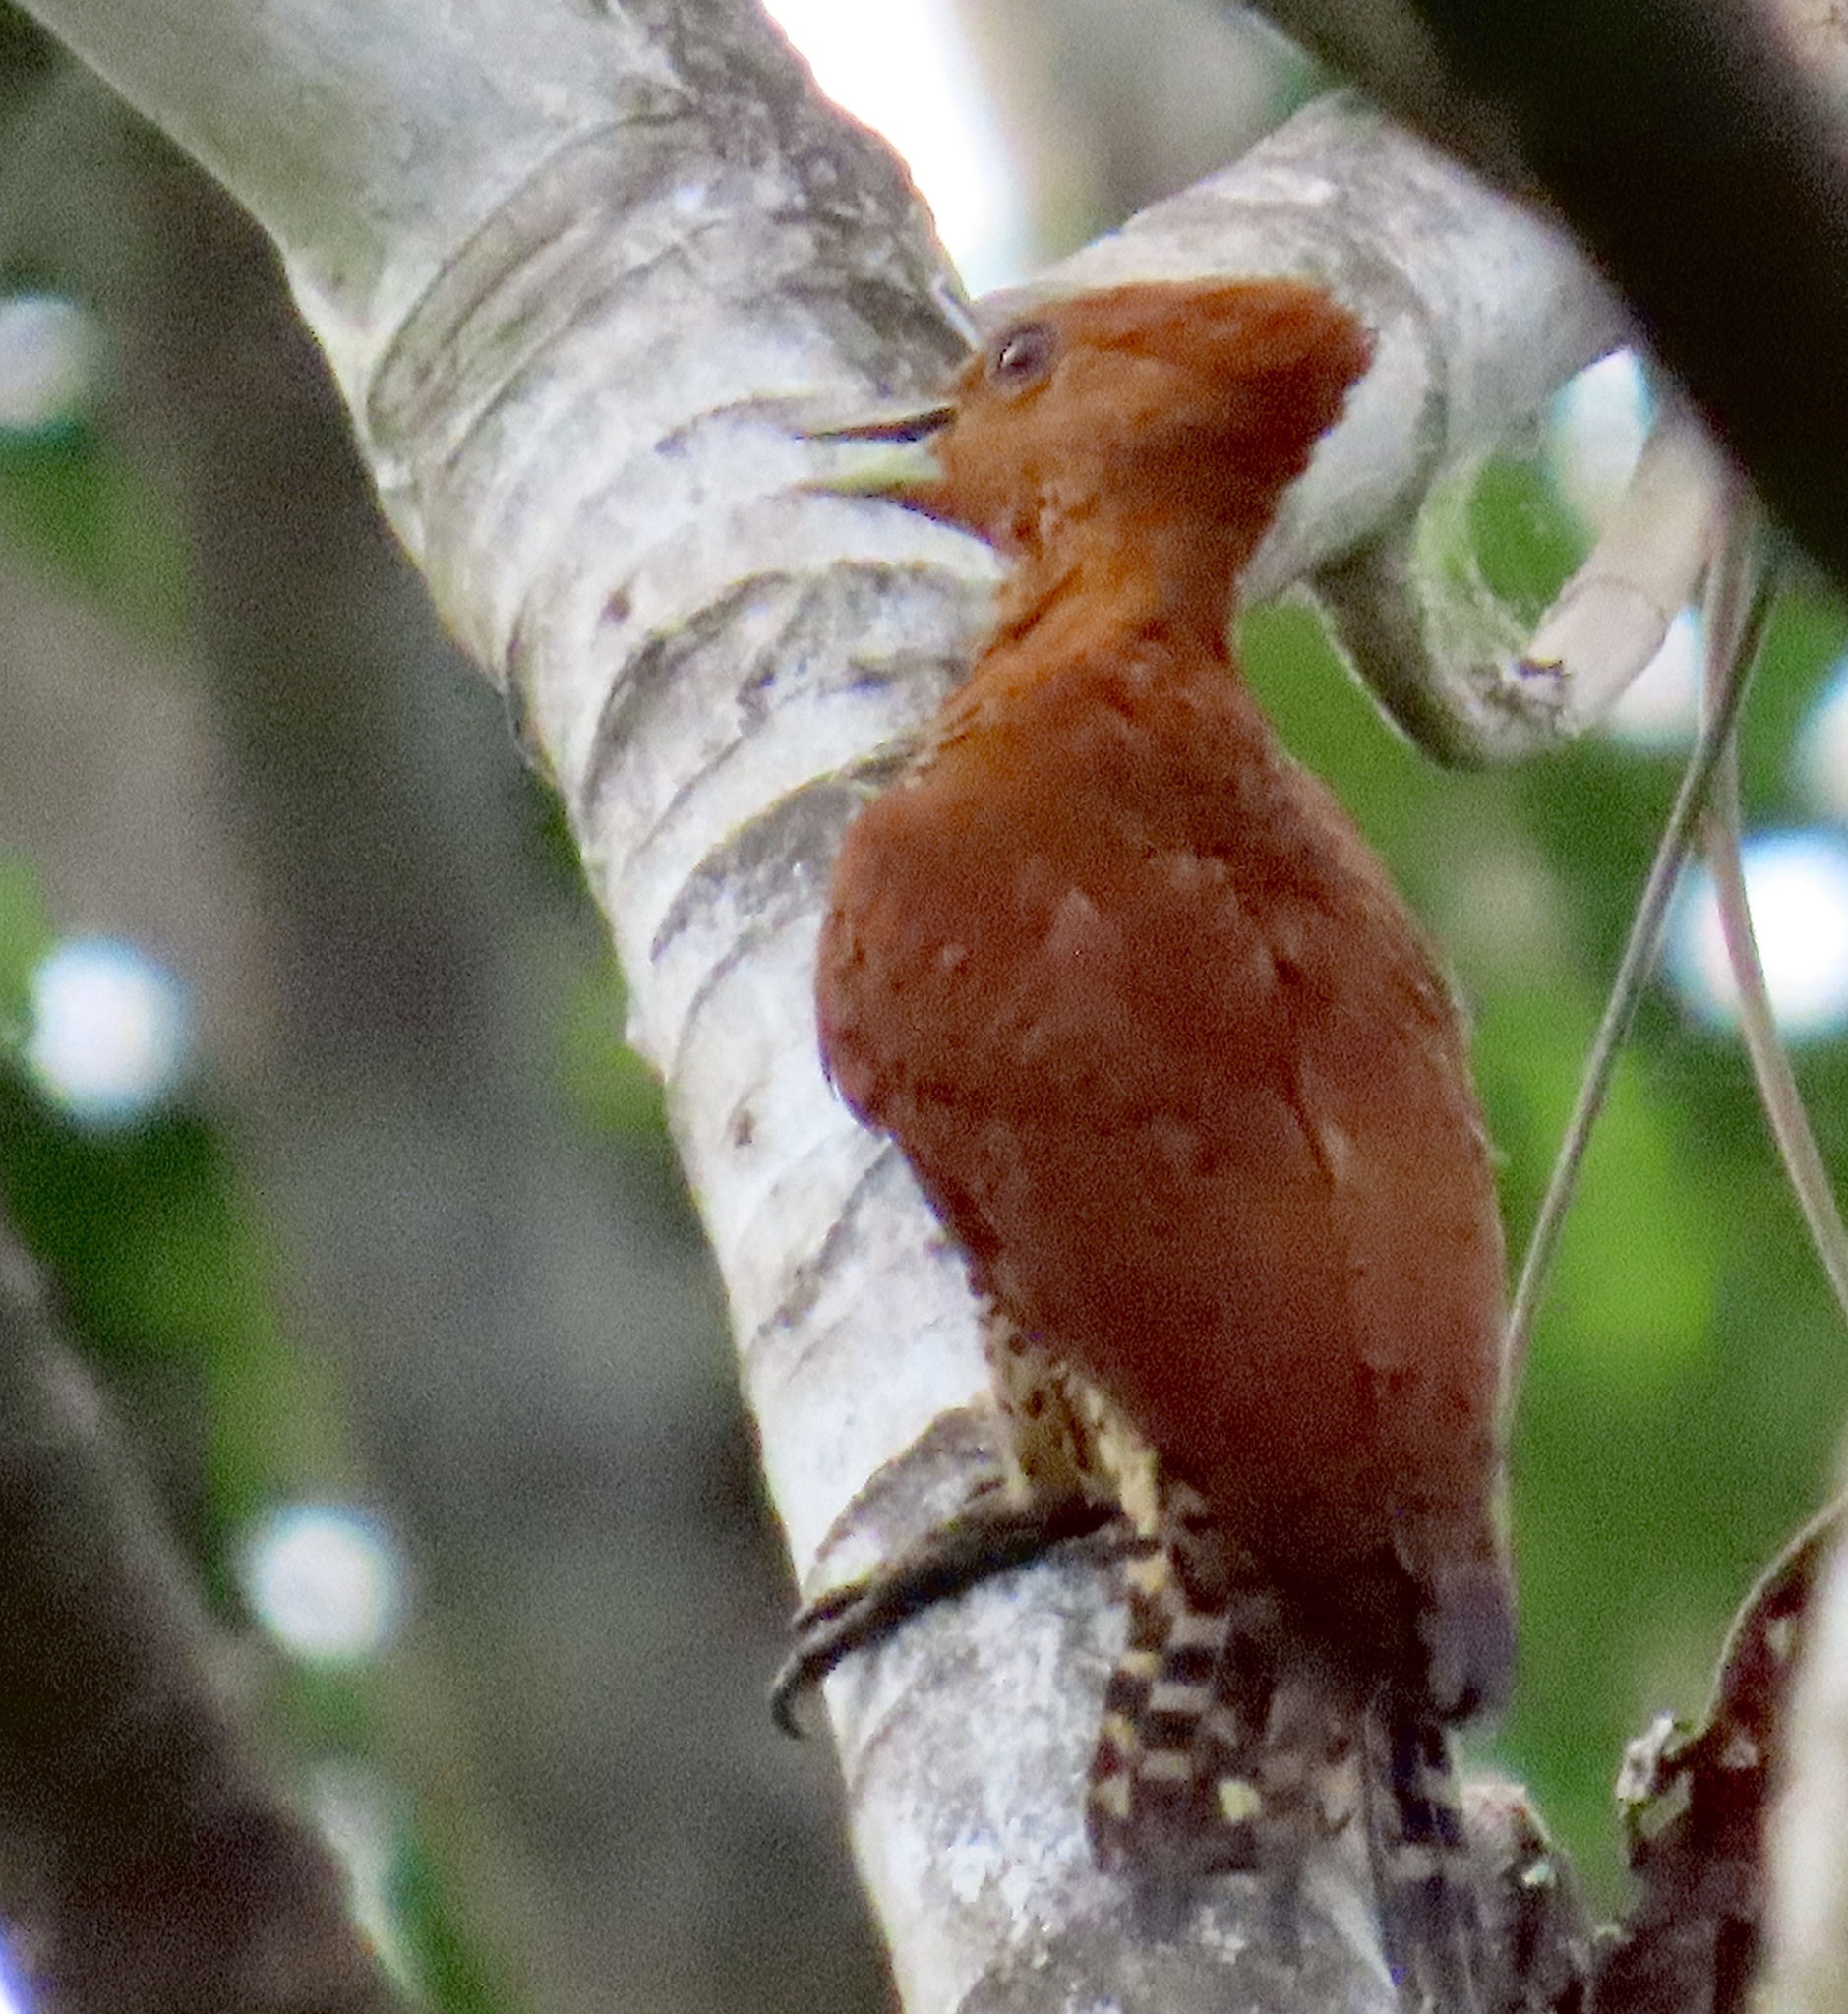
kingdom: Animalia
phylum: Chordata
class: Aves
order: Piciformes
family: Picidae
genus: Celeus
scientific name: Celeus loricatus
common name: Cinnamon woodpecker
